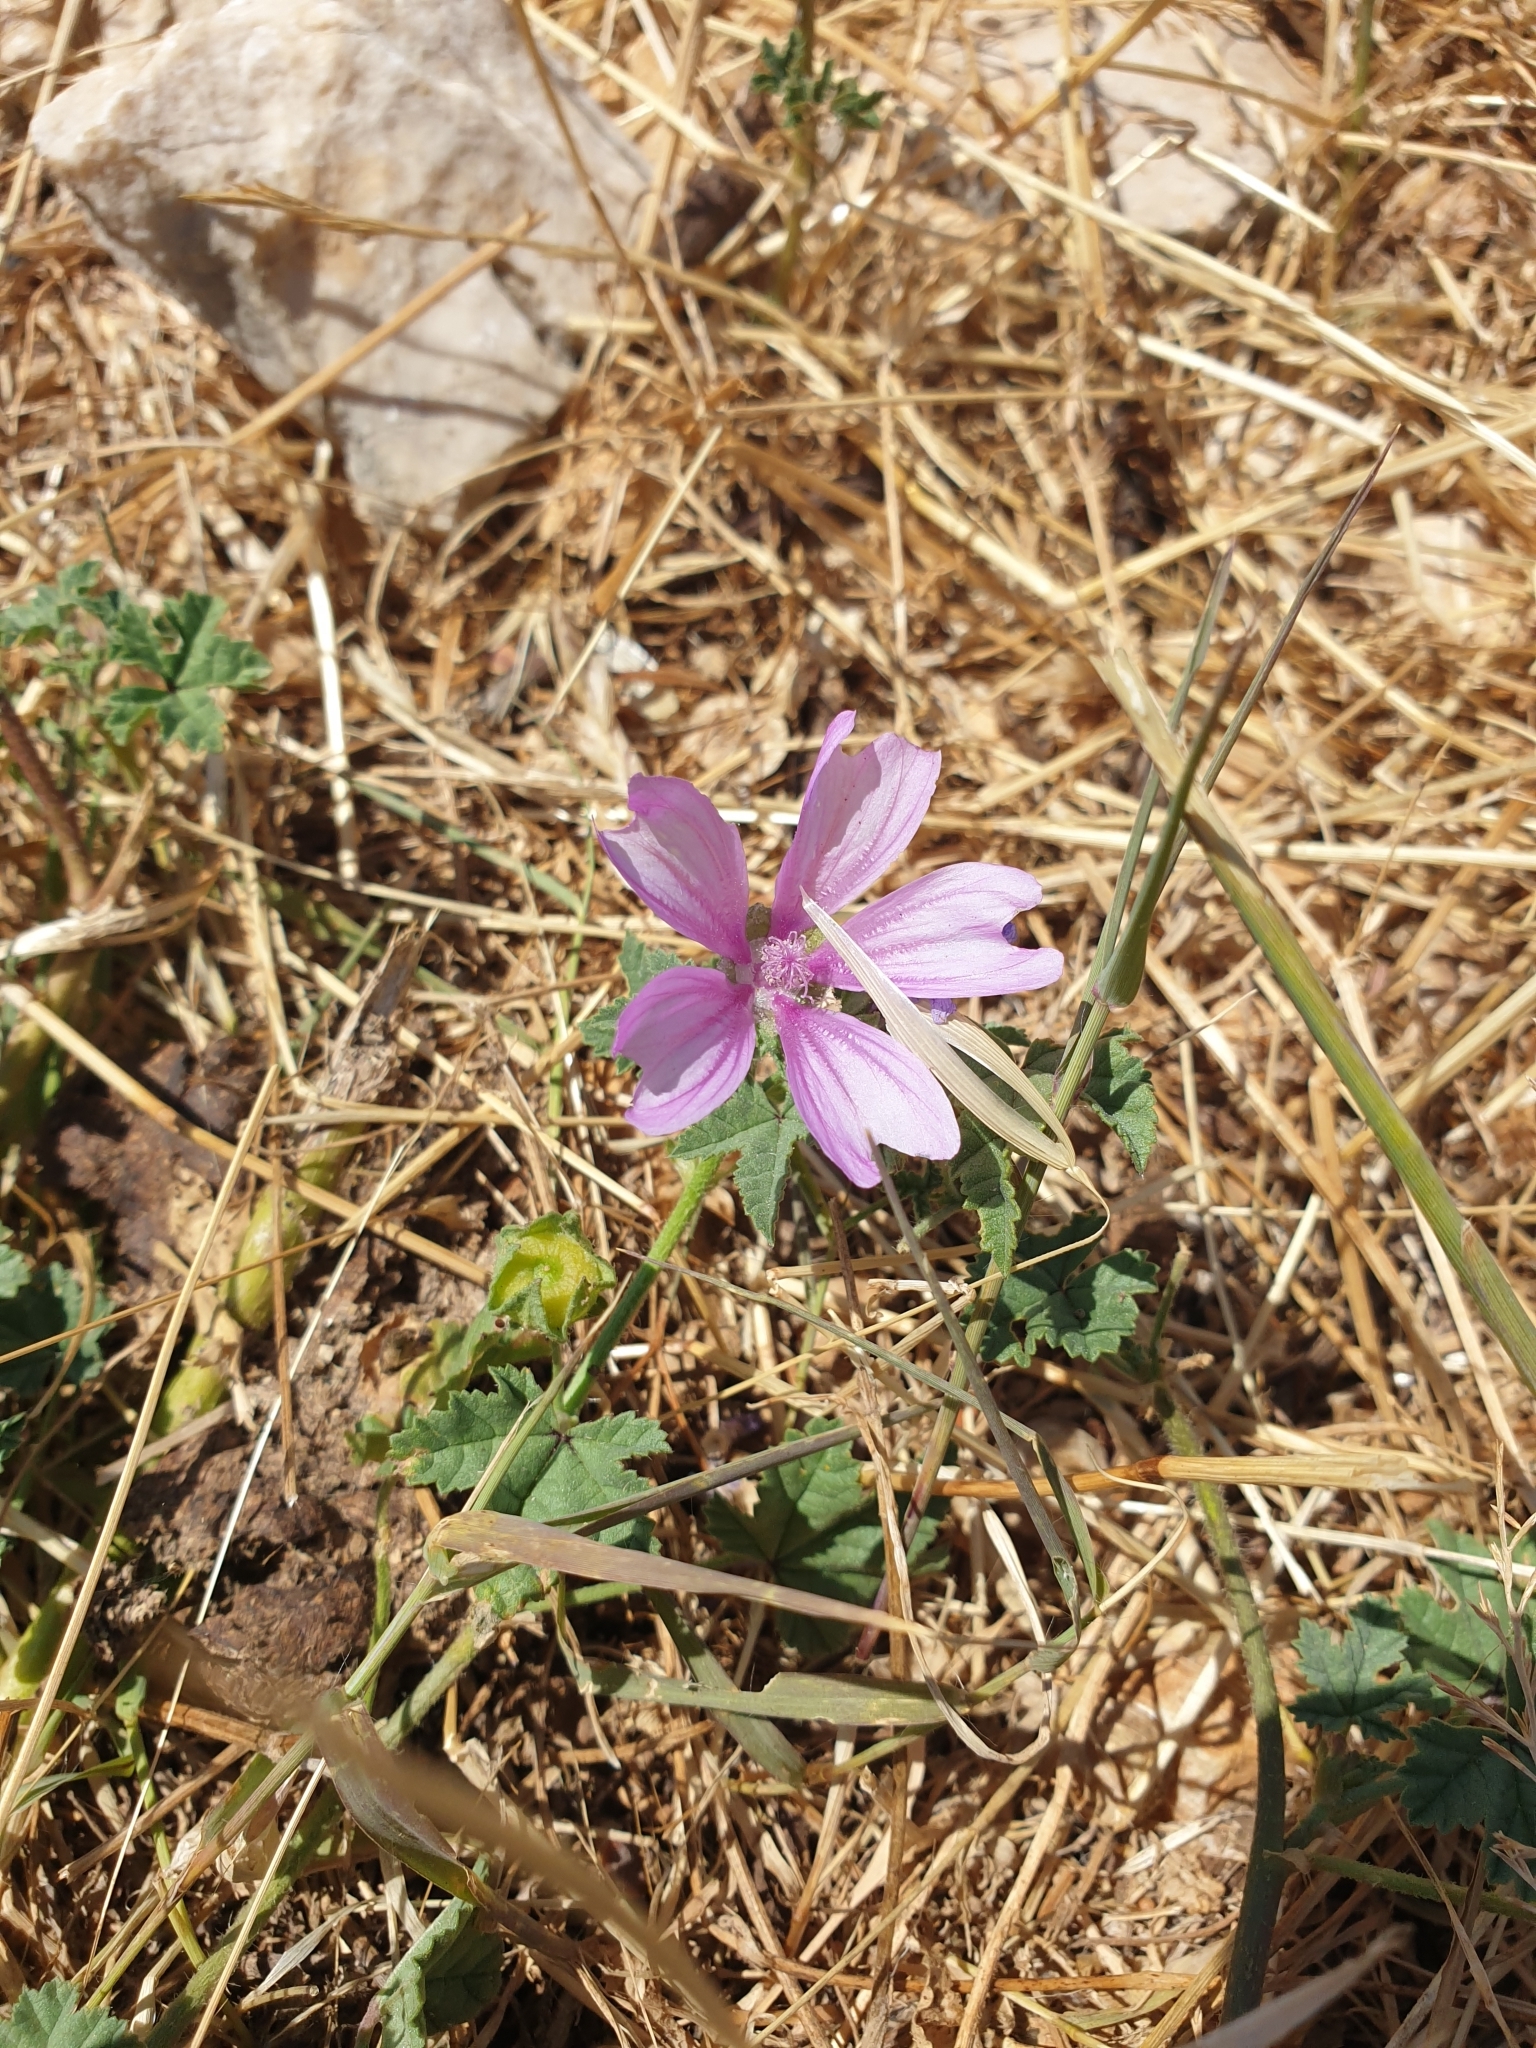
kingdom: Plantae
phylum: Tracheophyta
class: Magnoliopsida
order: Malvales
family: Malvaceae
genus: Malva
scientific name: Malva sylvestris
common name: Common mallow
